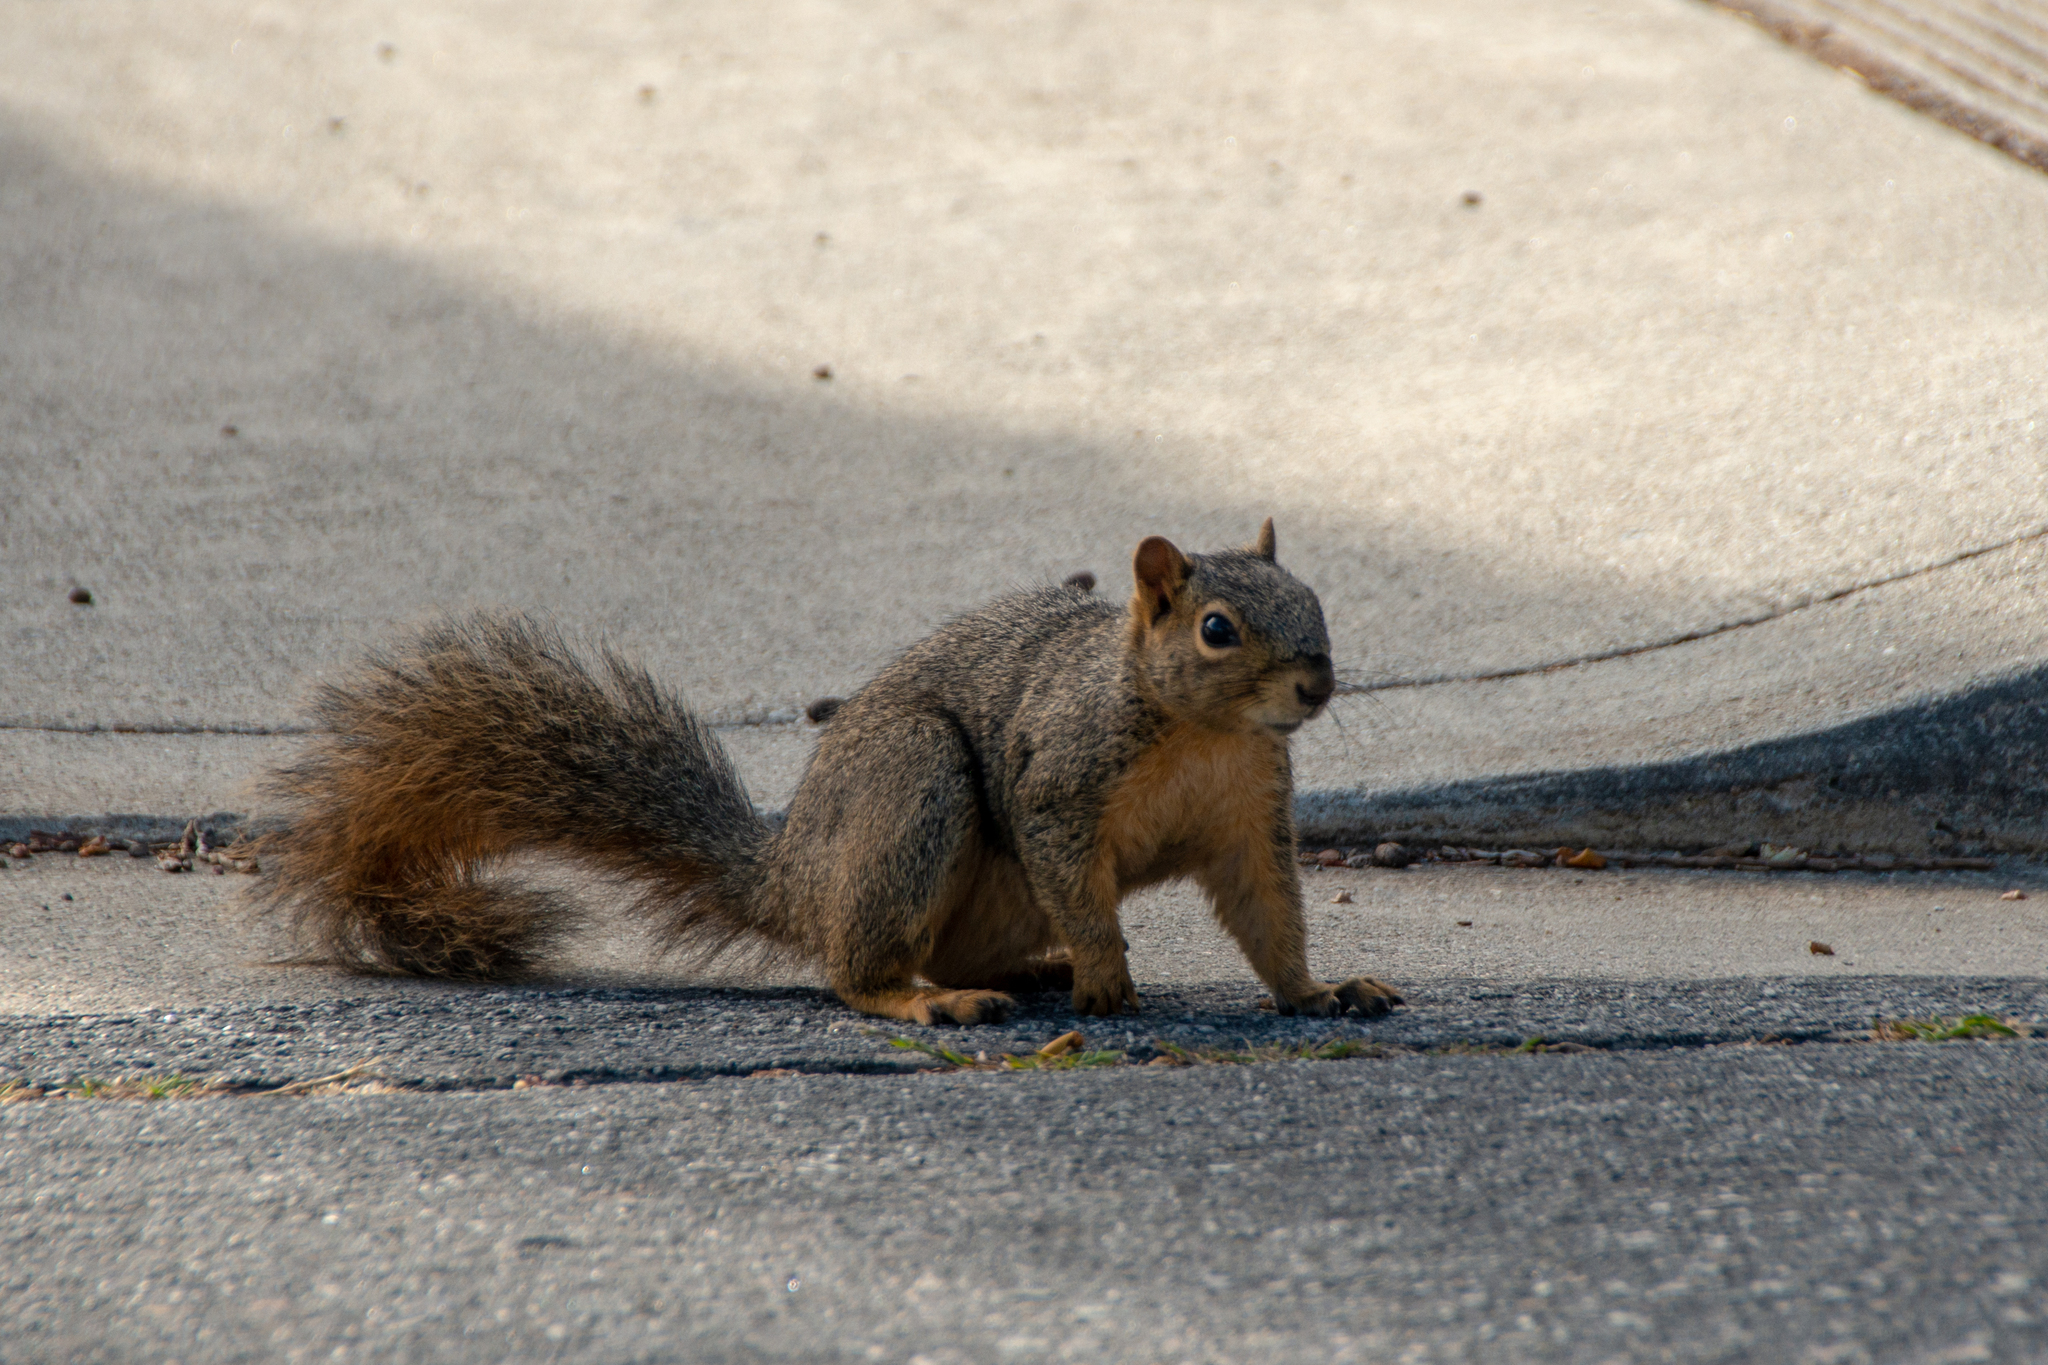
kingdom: Animalia
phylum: Chordata
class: Mammalia
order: Rodentia
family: Sciuridae
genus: Sciurus
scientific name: Sciurus niger
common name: Fox squirrel
